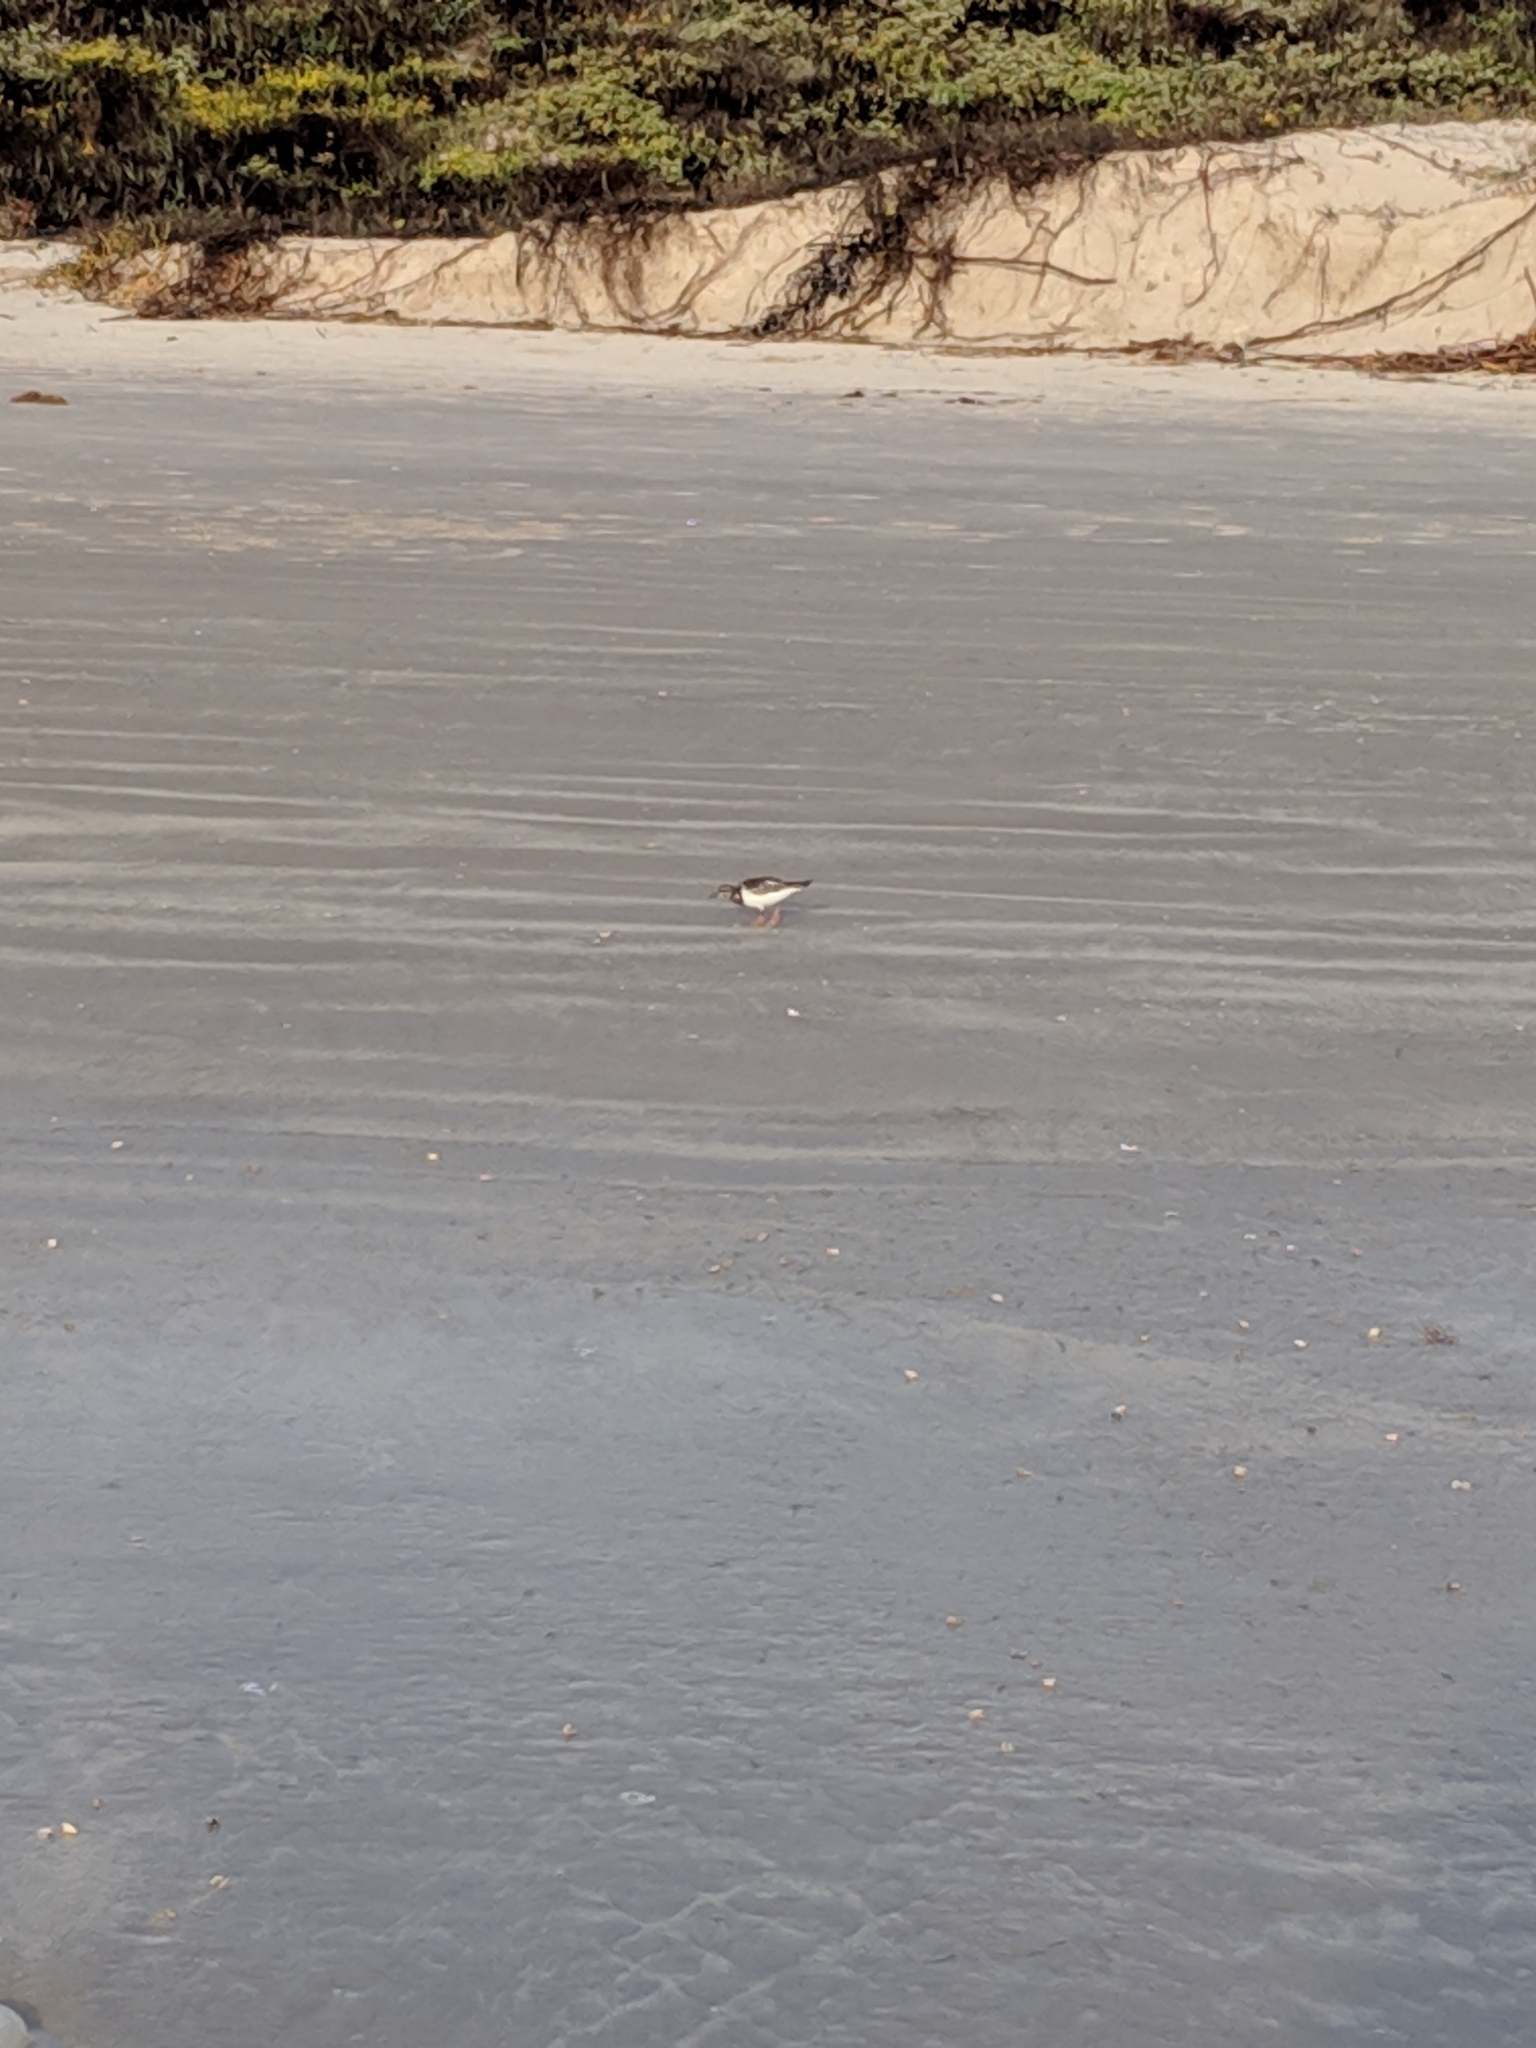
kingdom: Animalia
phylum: Chordata
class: Aves
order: Charadriiformes
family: Scolopacidae
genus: Arenaria
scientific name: Arenaria interpres
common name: Ruddy turnstone
